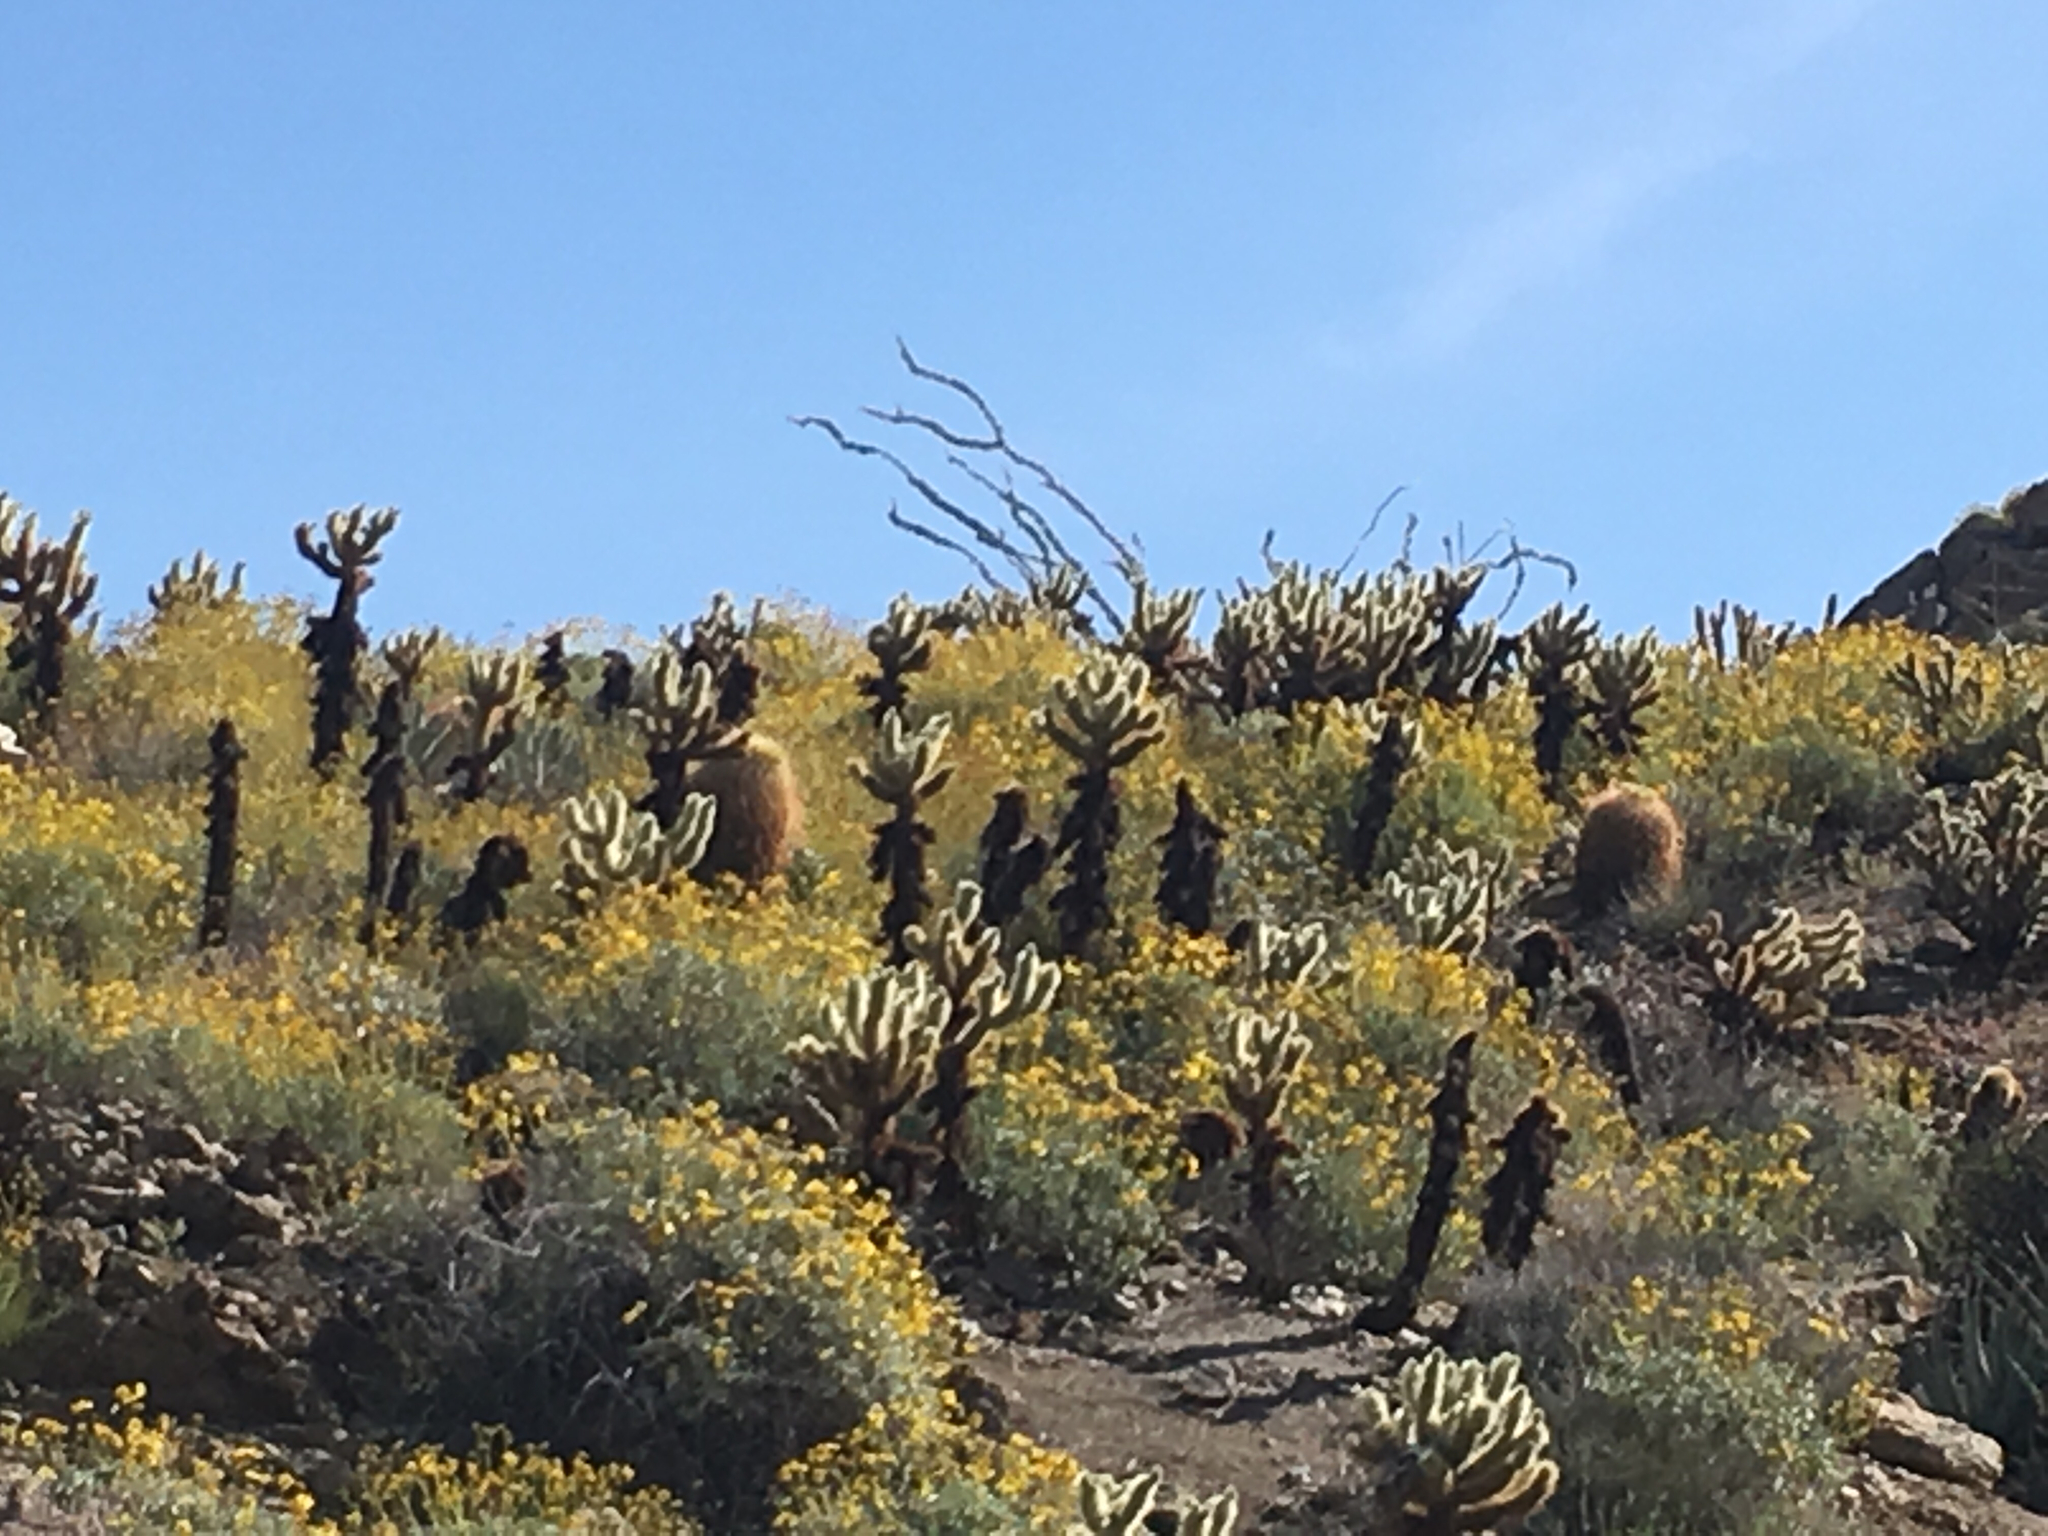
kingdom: Plantae
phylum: Tracheophyta
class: Magnoliopsida
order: Caryophyllales
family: Cactaceae
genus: Cylindropuntia
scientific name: Cylindropuntia fosbergii
